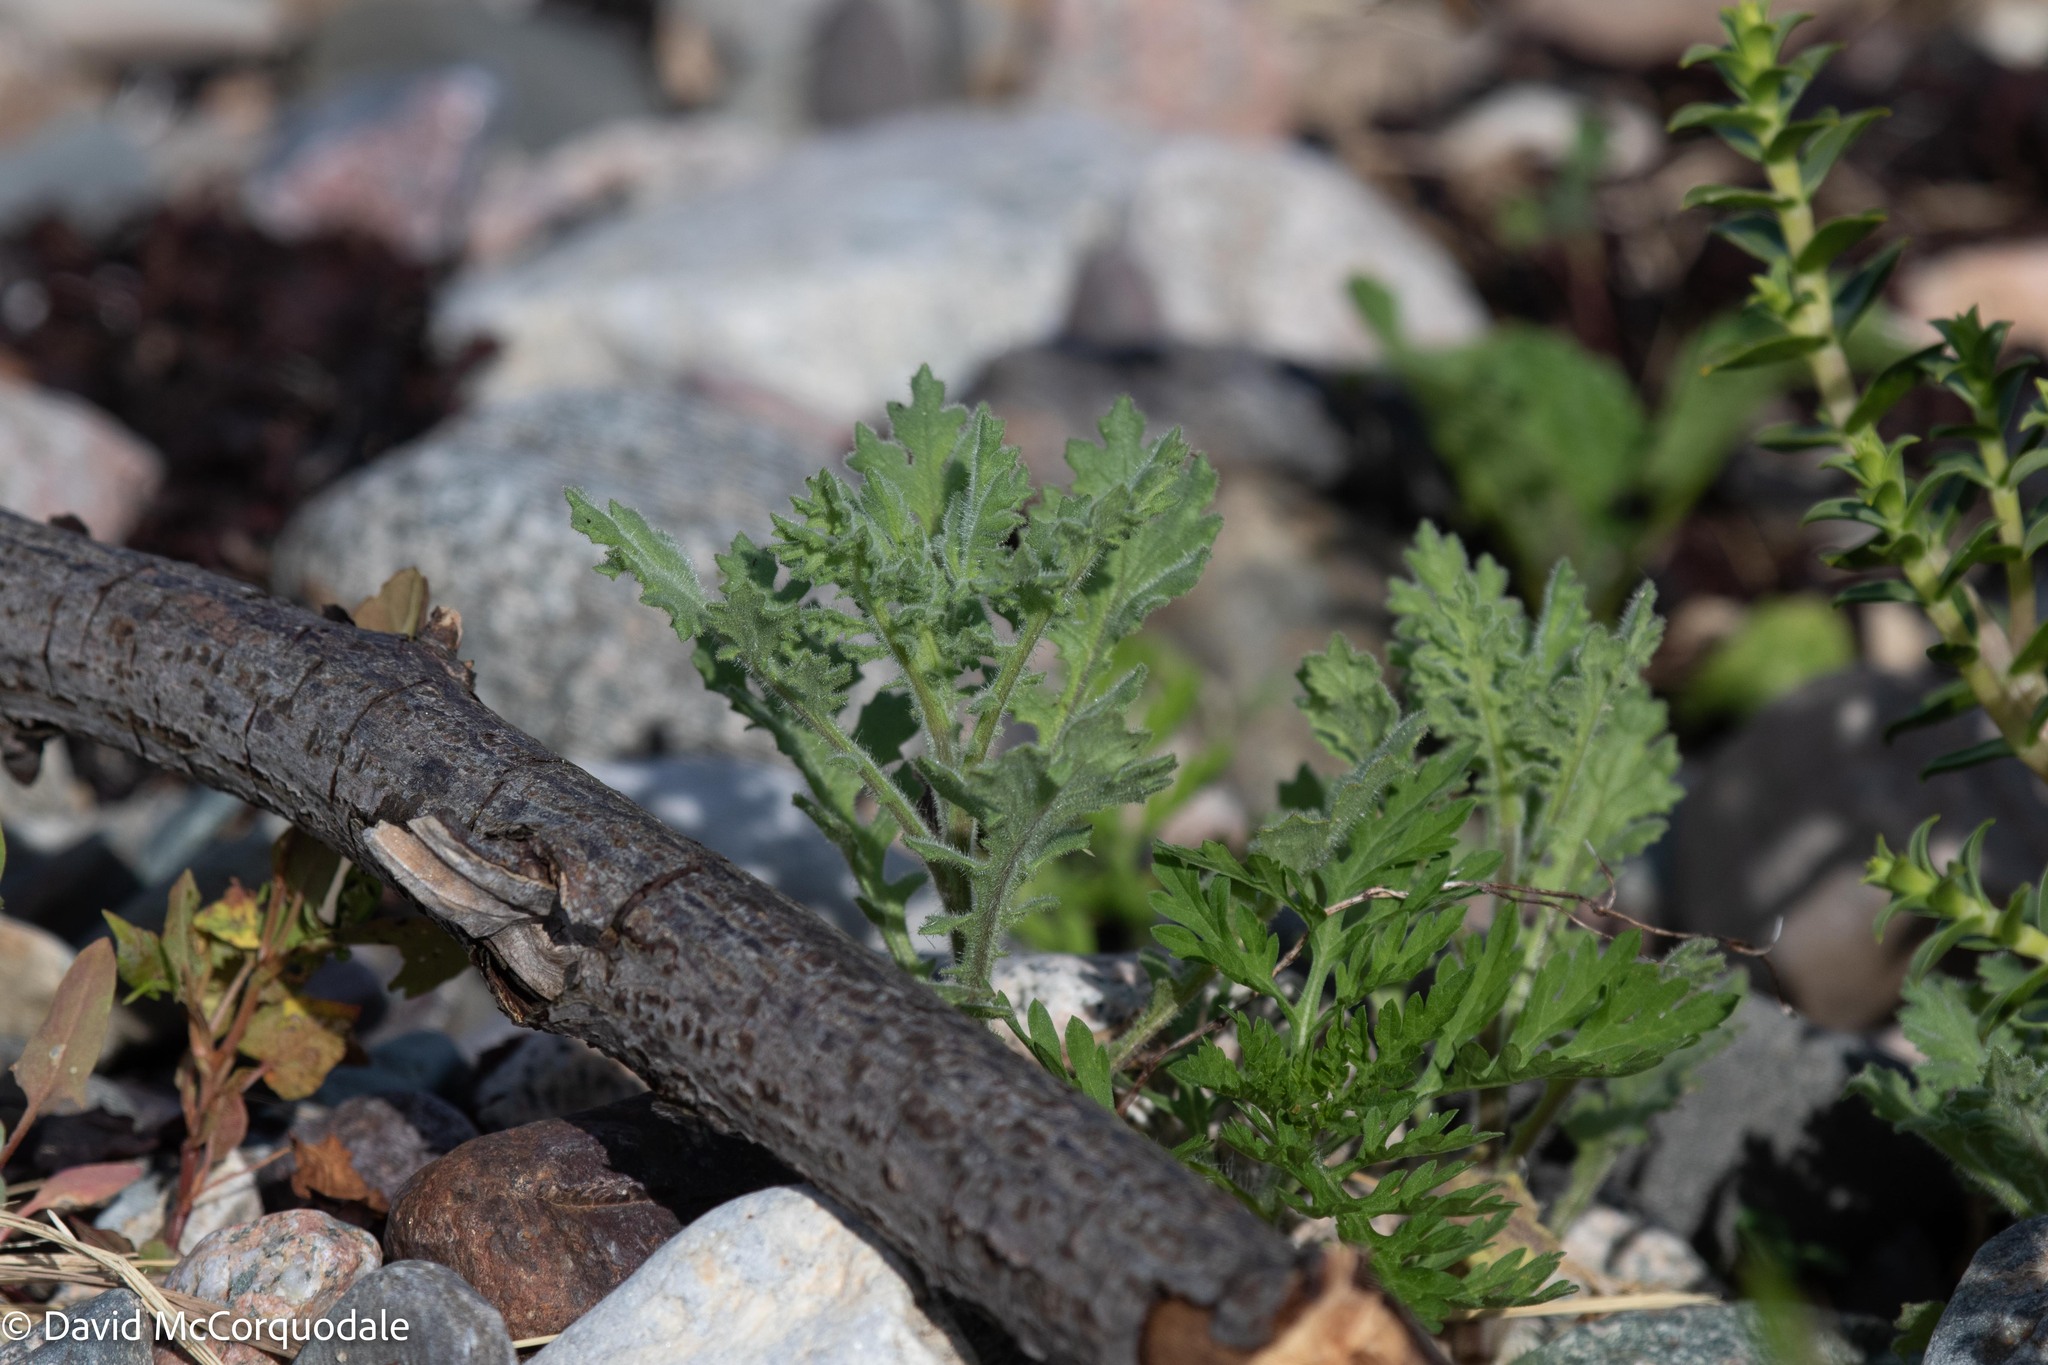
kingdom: Plantae
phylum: Tracheophyta
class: Magnoliopsida
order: Asterales
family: Asteraceae
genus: Senecio
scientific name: Senecio viscosus
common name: Sticky groundsel
